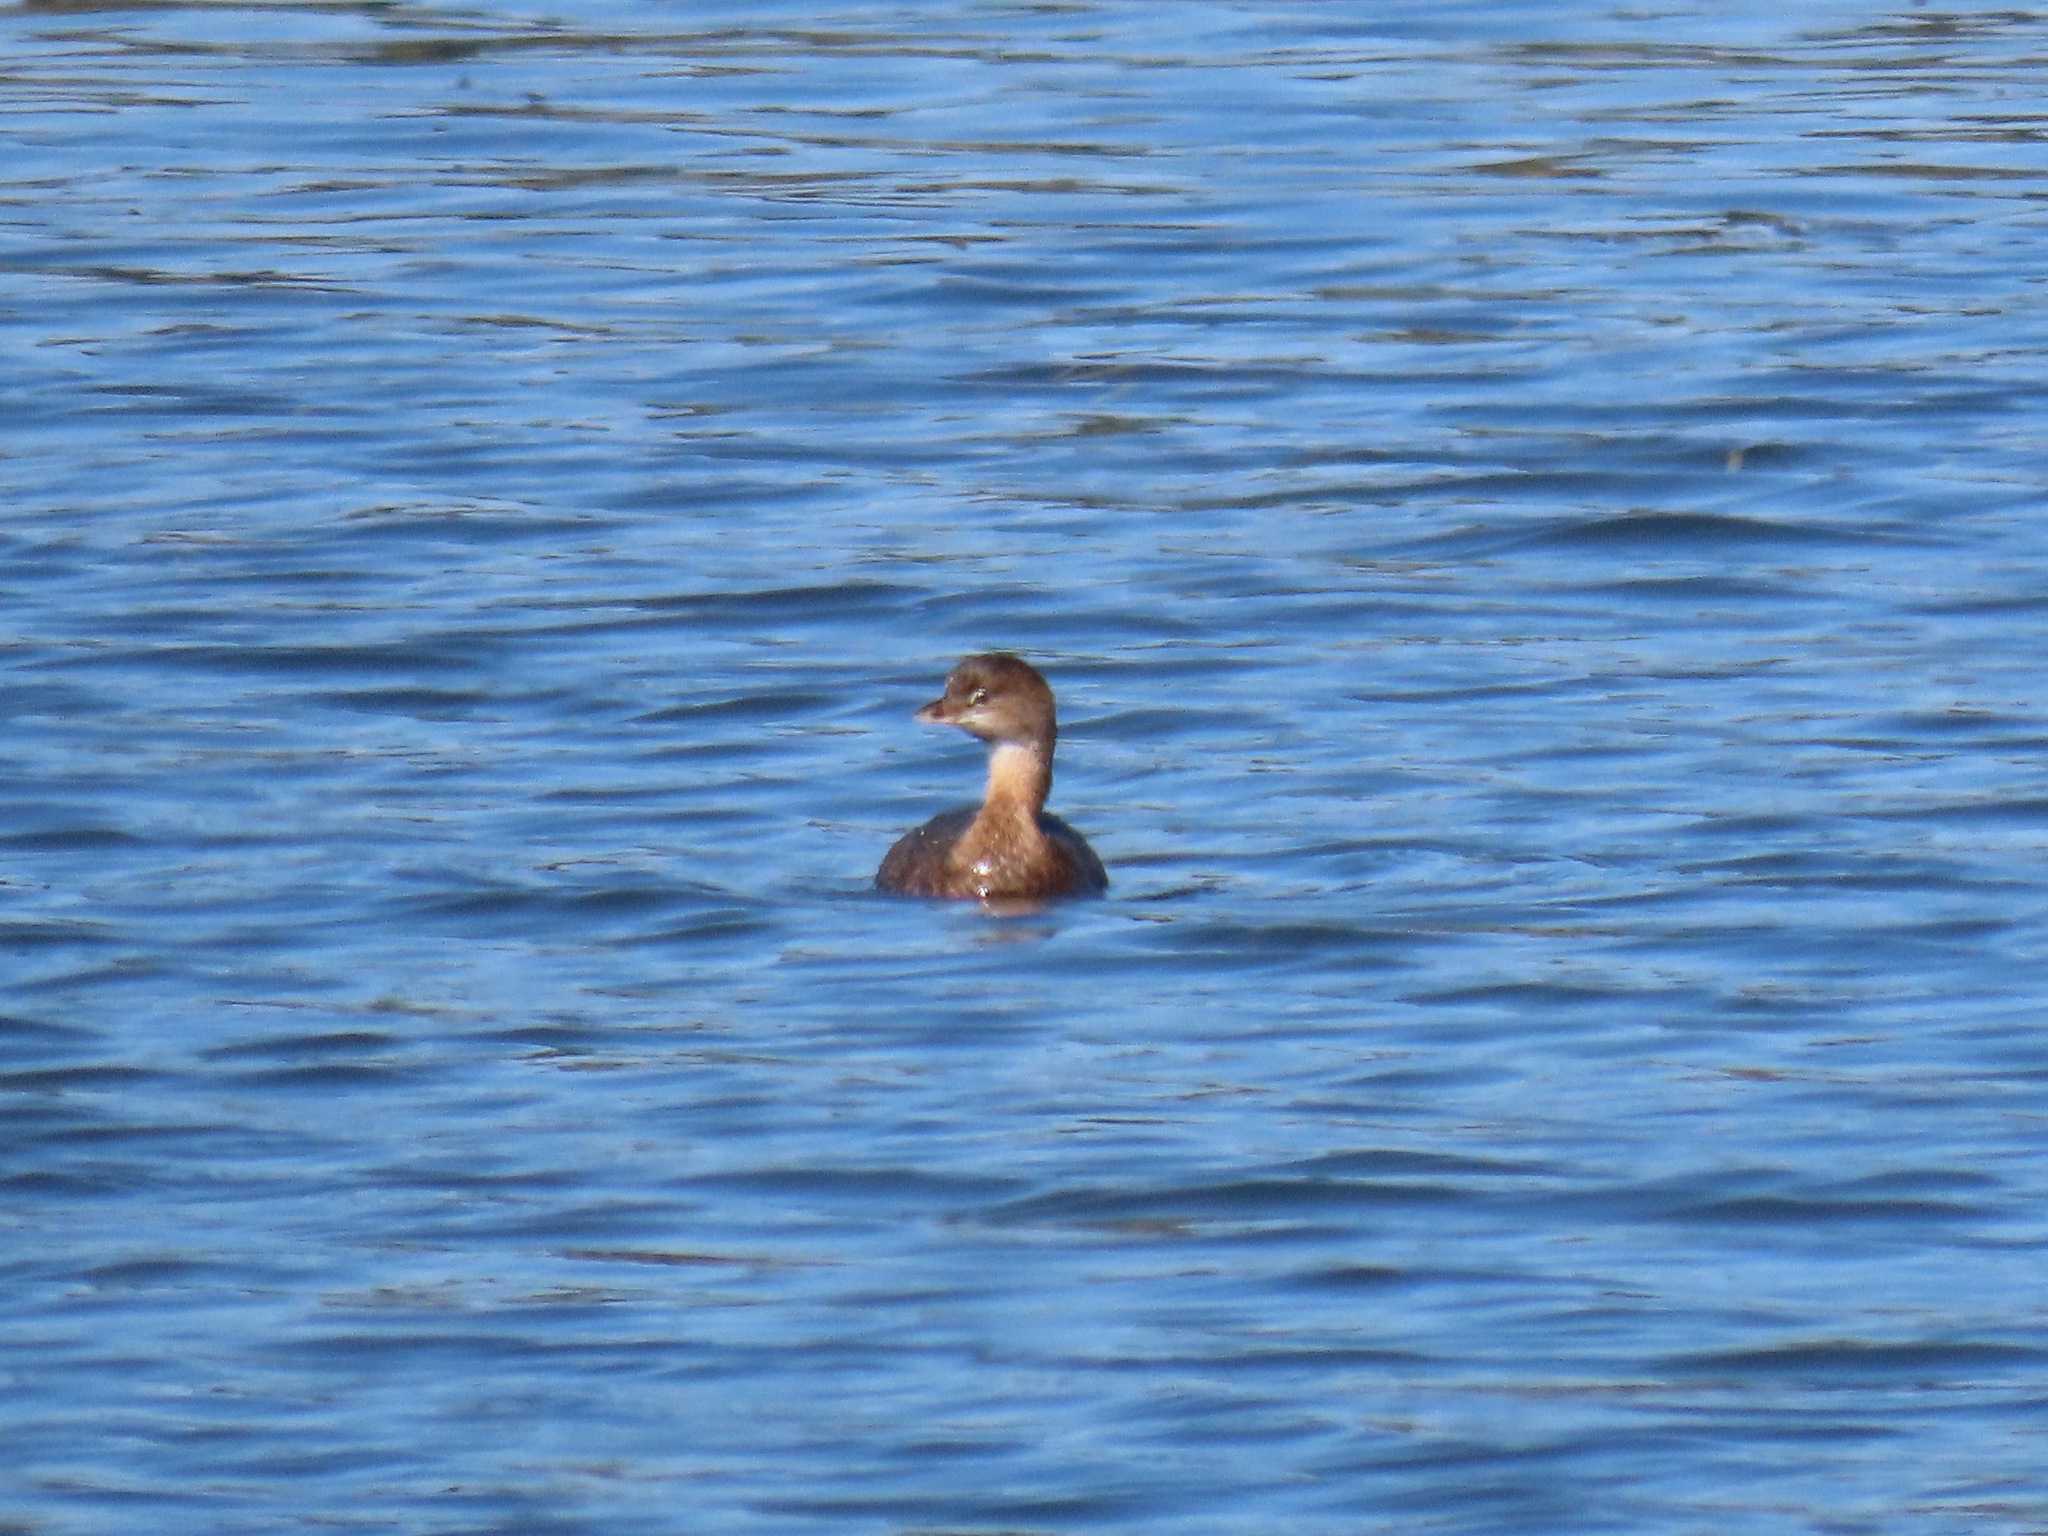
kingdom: Animalia
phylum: Chordata
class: Aves
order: Podicipediformes
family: Podicipedidae
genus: Podilymbus
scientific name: Podilymbus podiceps
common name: Pied-billed grebe
